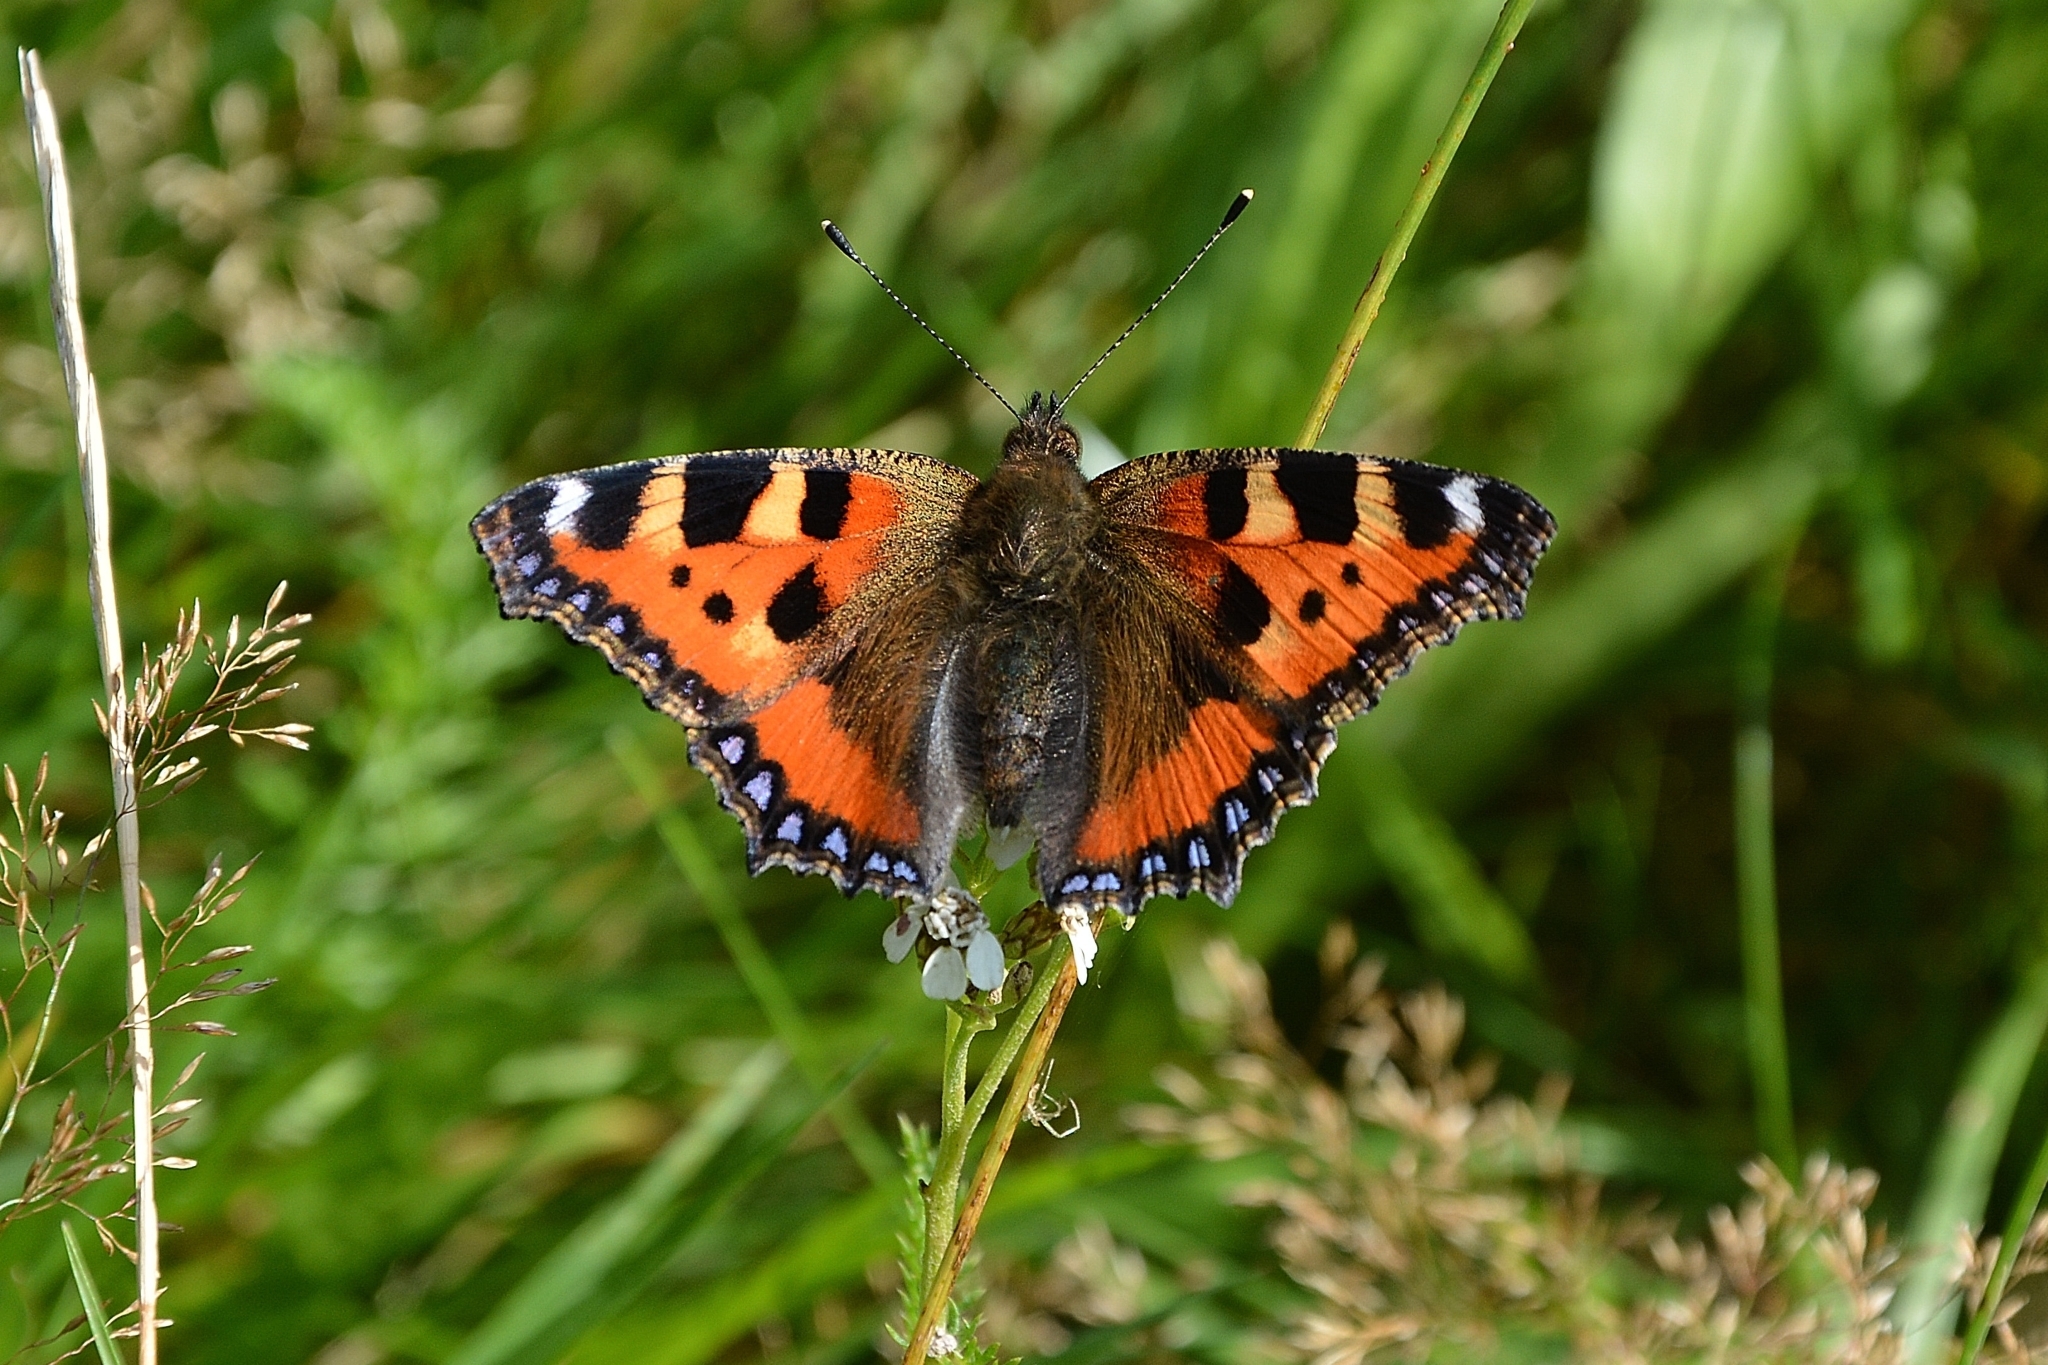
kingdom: Animalia
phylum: Arthropoda
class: Insecta
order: Lepidoptera
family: Nymphalidae
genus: Aglais
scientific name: Aglais urticae
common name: Small tortoiseshell
